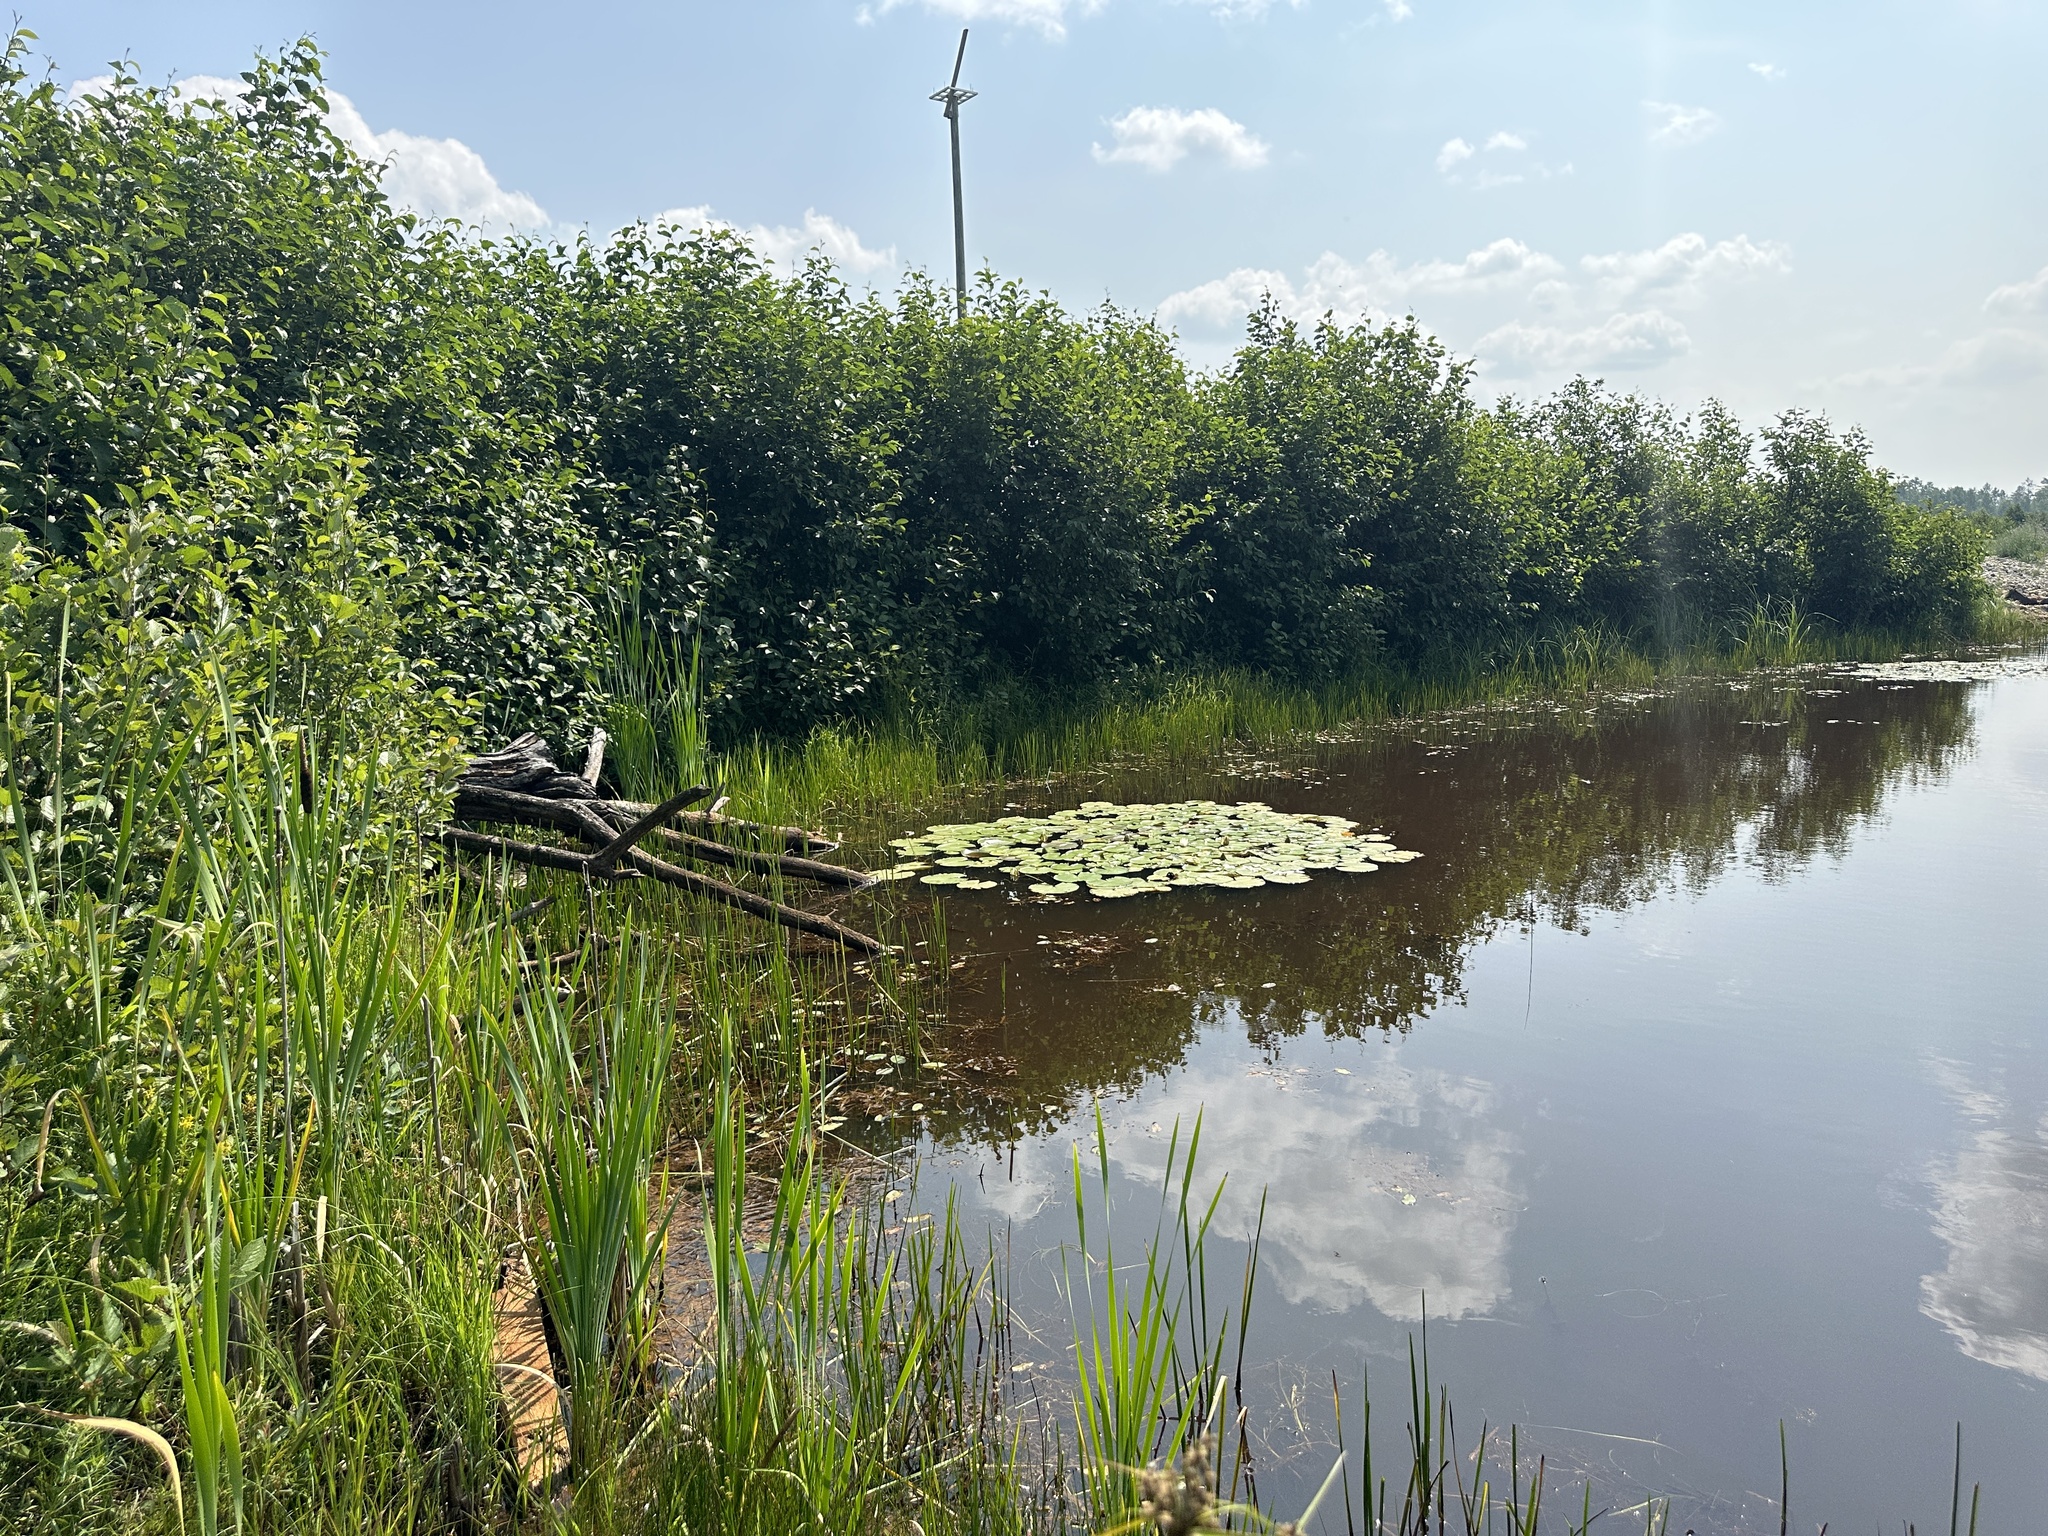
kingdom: Plantae
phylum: Tracheophyta
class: Magnoliopsida
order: Nymphaeales
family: Nymphaeaceae
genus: Nymphaea
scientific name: Nymphaea odorata
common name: Fragrant water-lily
